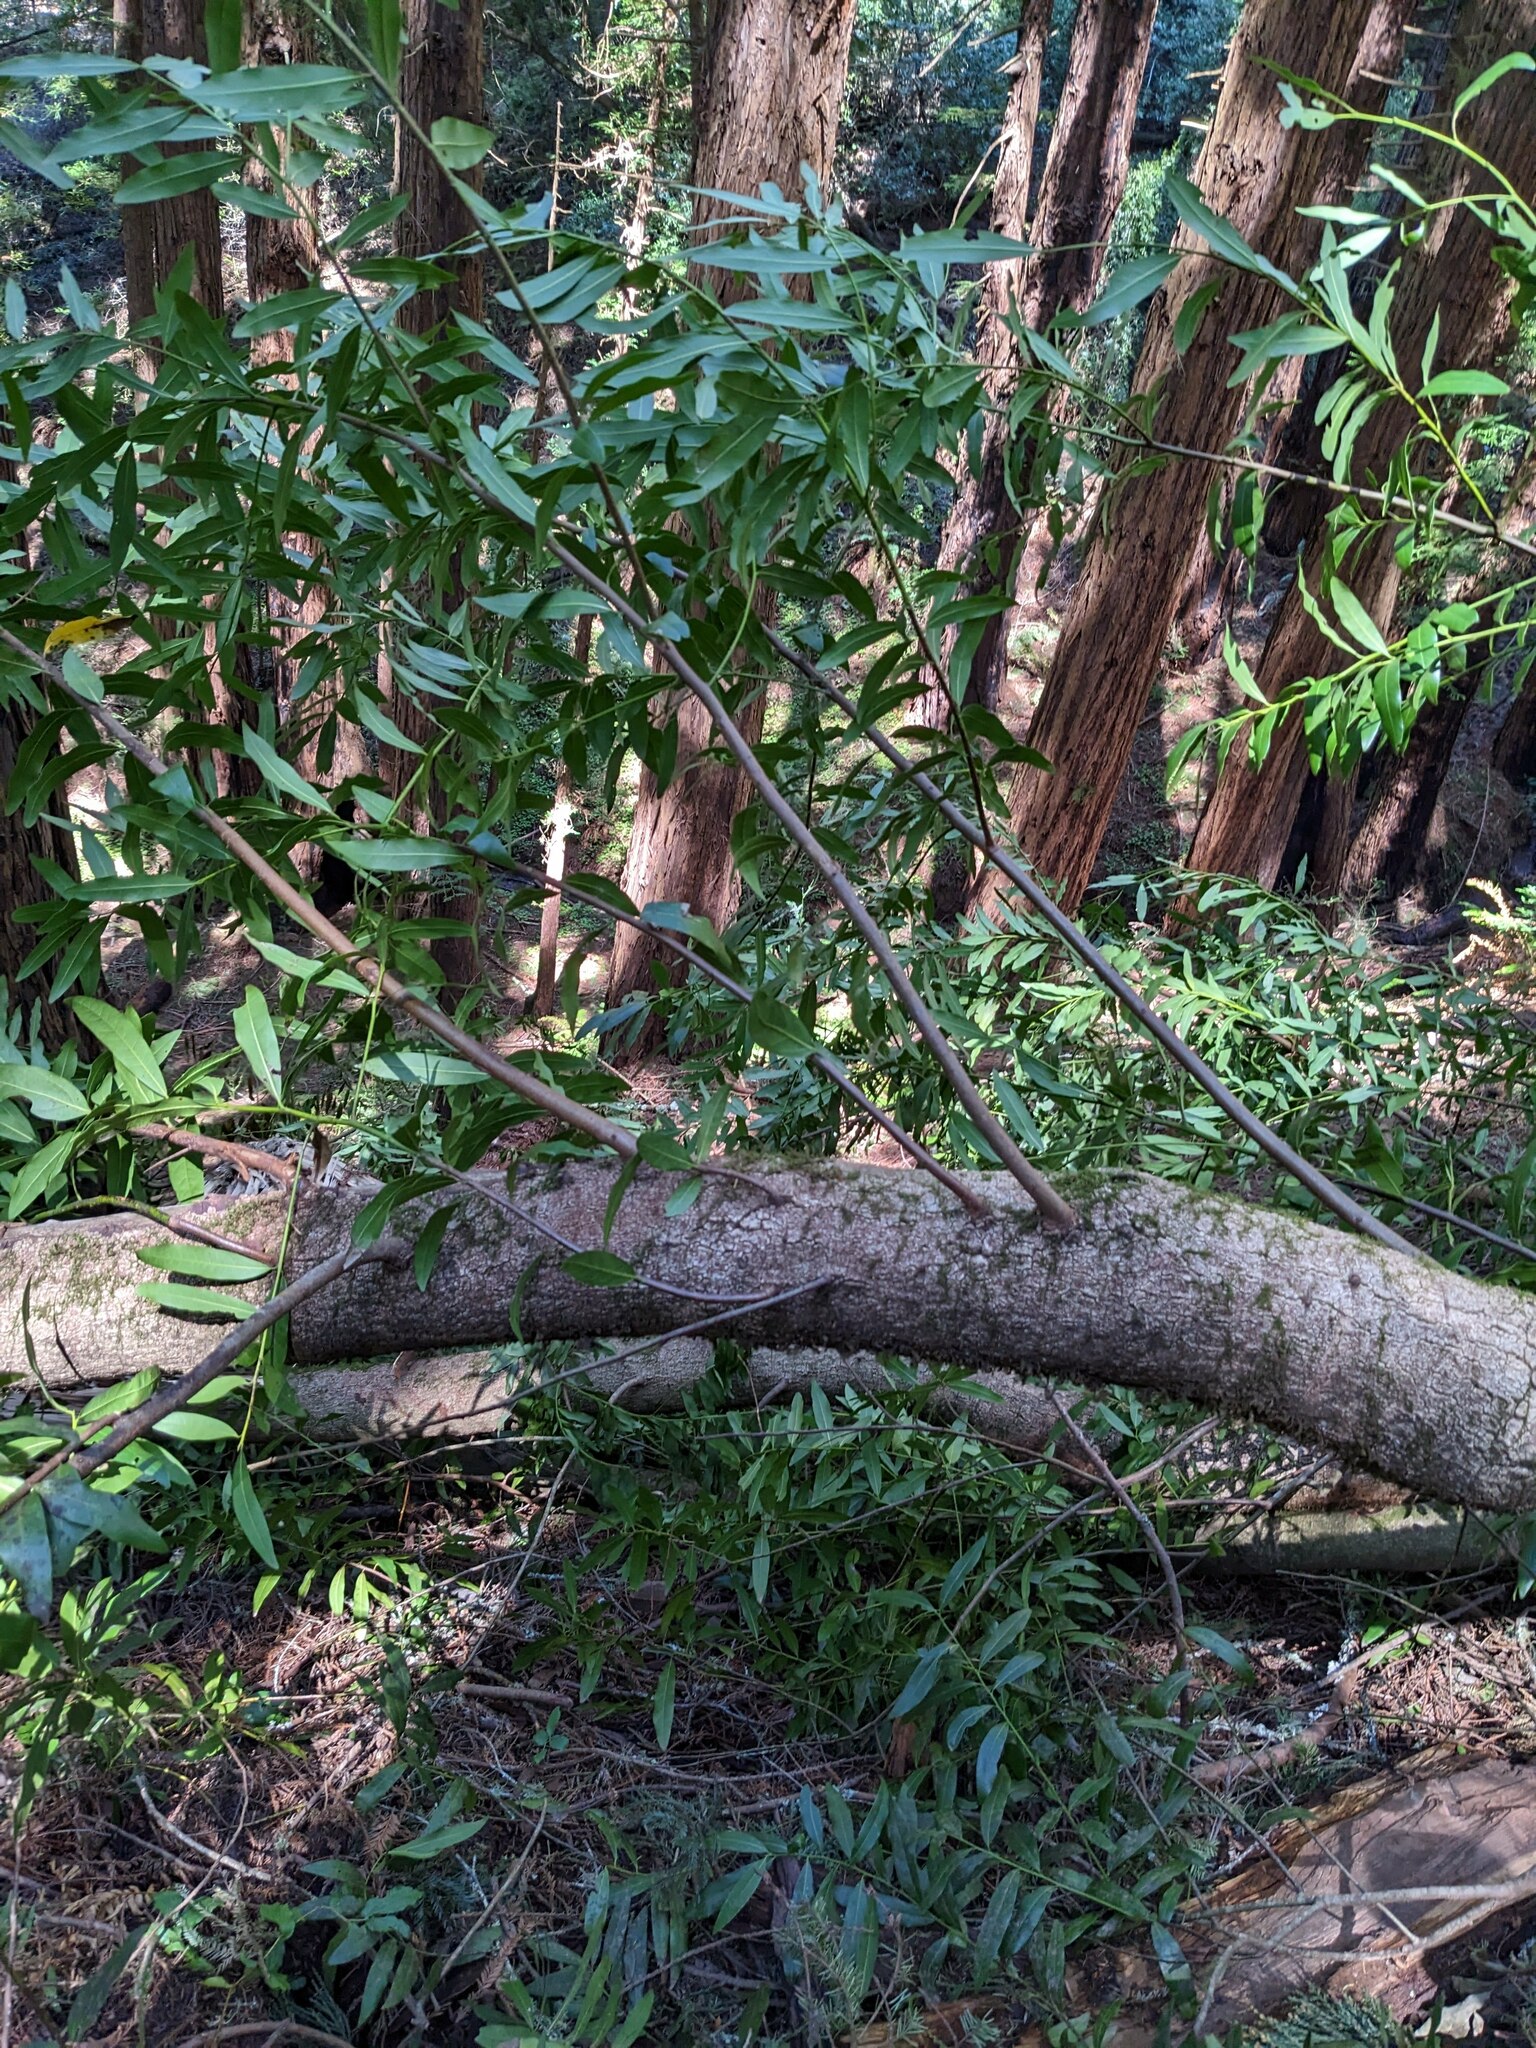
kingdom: Plantae
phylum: Tracheophyta
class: Magnoliopsida
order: Laurales
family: Lauraceae
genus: Umbellularia
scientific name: Umbellularia californica
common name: California bay
